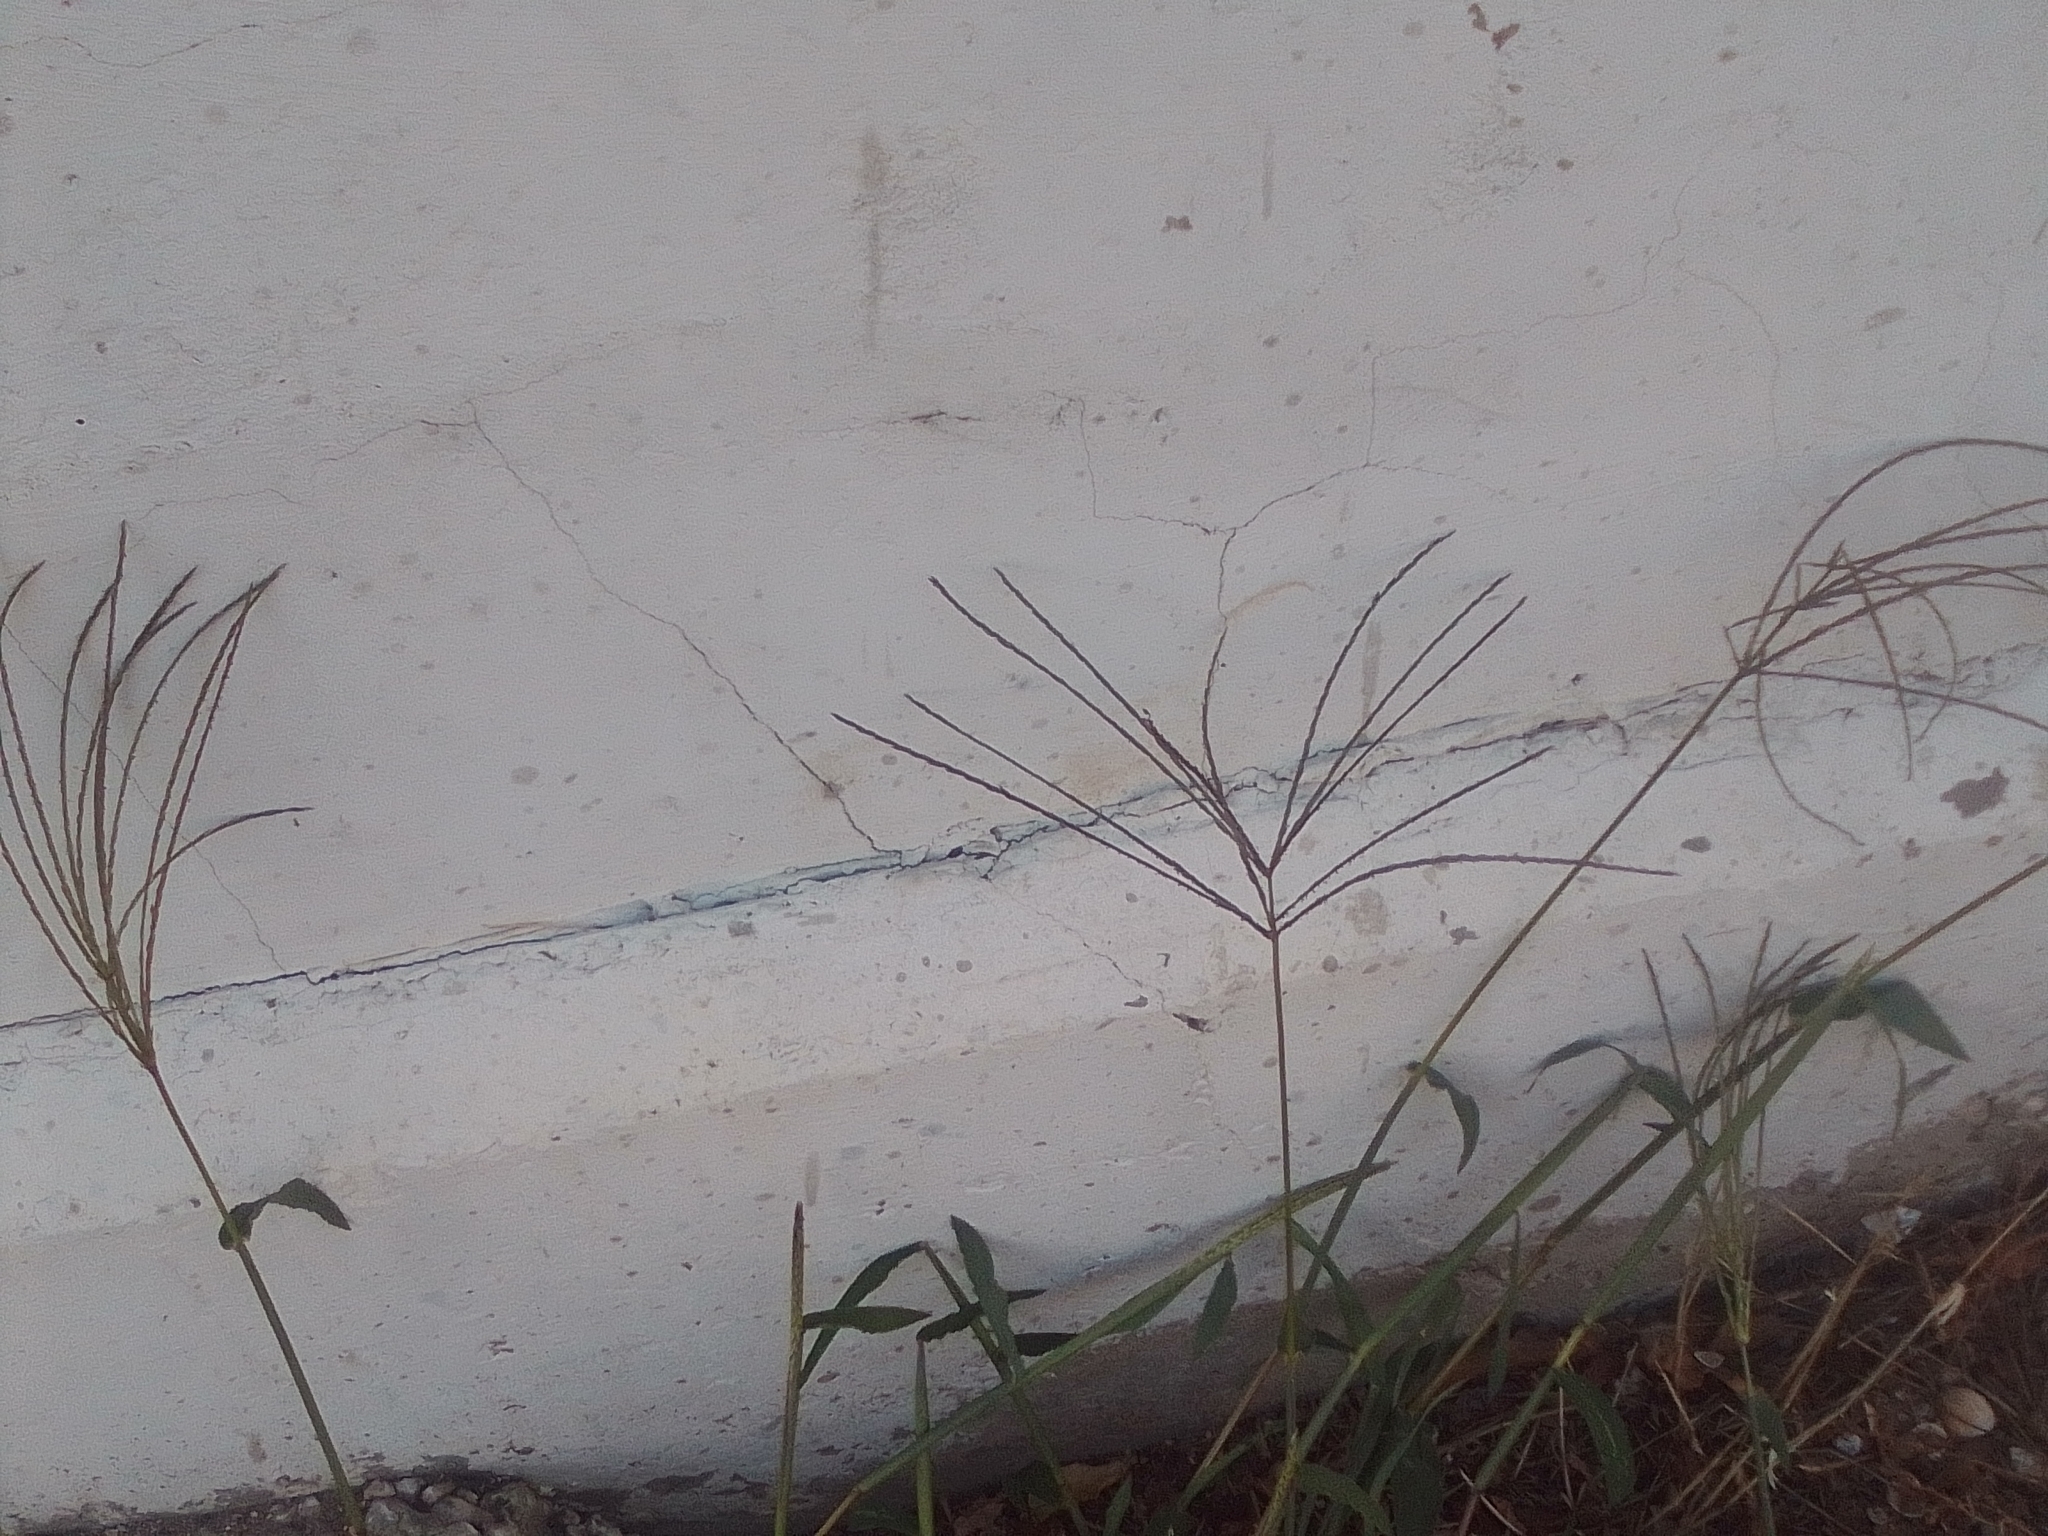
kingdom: Plantae
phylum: Tracheophyta
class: Liliopsida
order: Poales
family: Poaceae
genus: Digitaria
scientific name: Digitaria sanguinalis
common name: Hairy crabgrass
